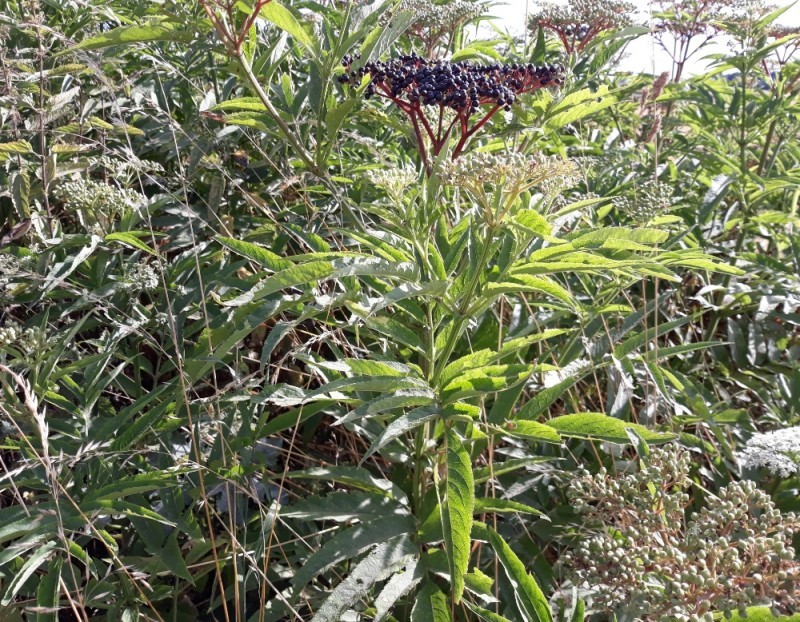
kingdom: Plantae
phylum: Tracheophyta
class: Magnoliopsida
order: Dipsacales
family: Viburnaceae
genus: Sambucus
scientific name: Sambucus ebulus
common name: Dwarf elder
